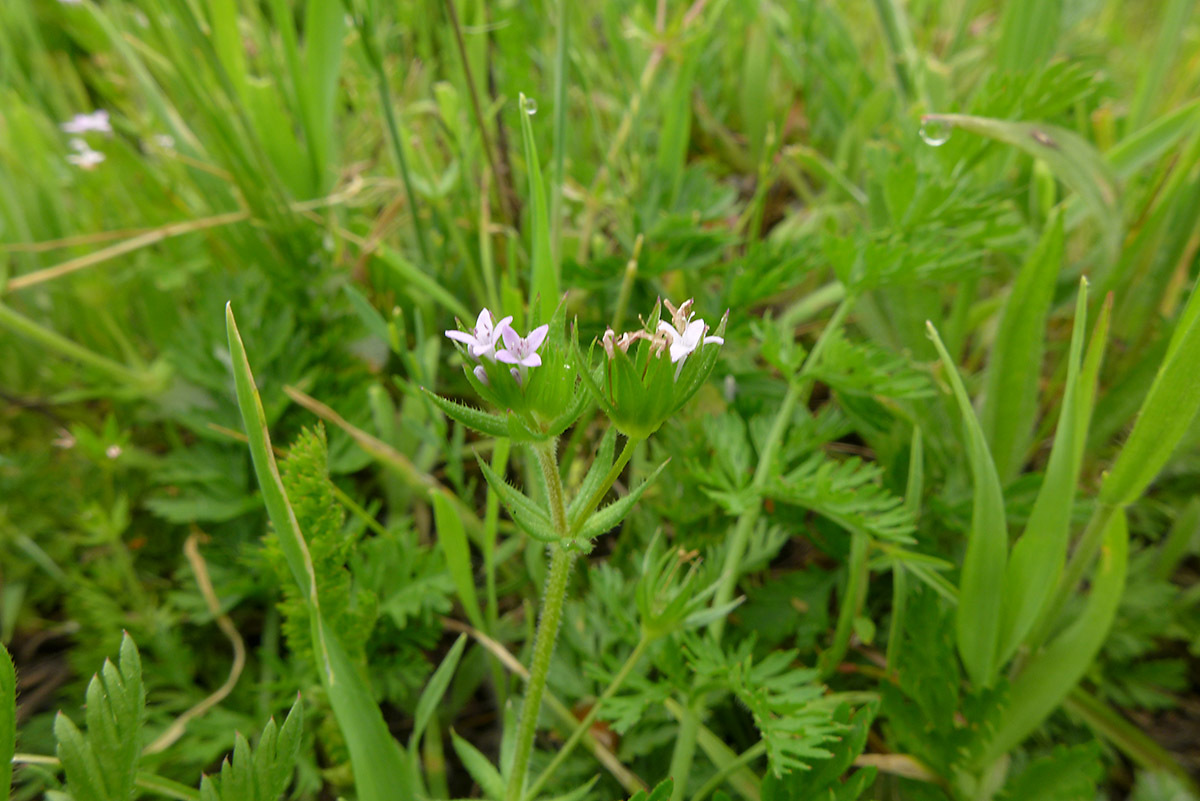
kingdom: Plantae
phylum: Tracheophyta
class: Magnoliopsida
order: Gentianales
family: Rubiaceae
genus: Sherardia
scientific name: Sherardia arvensis
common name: Field madder
